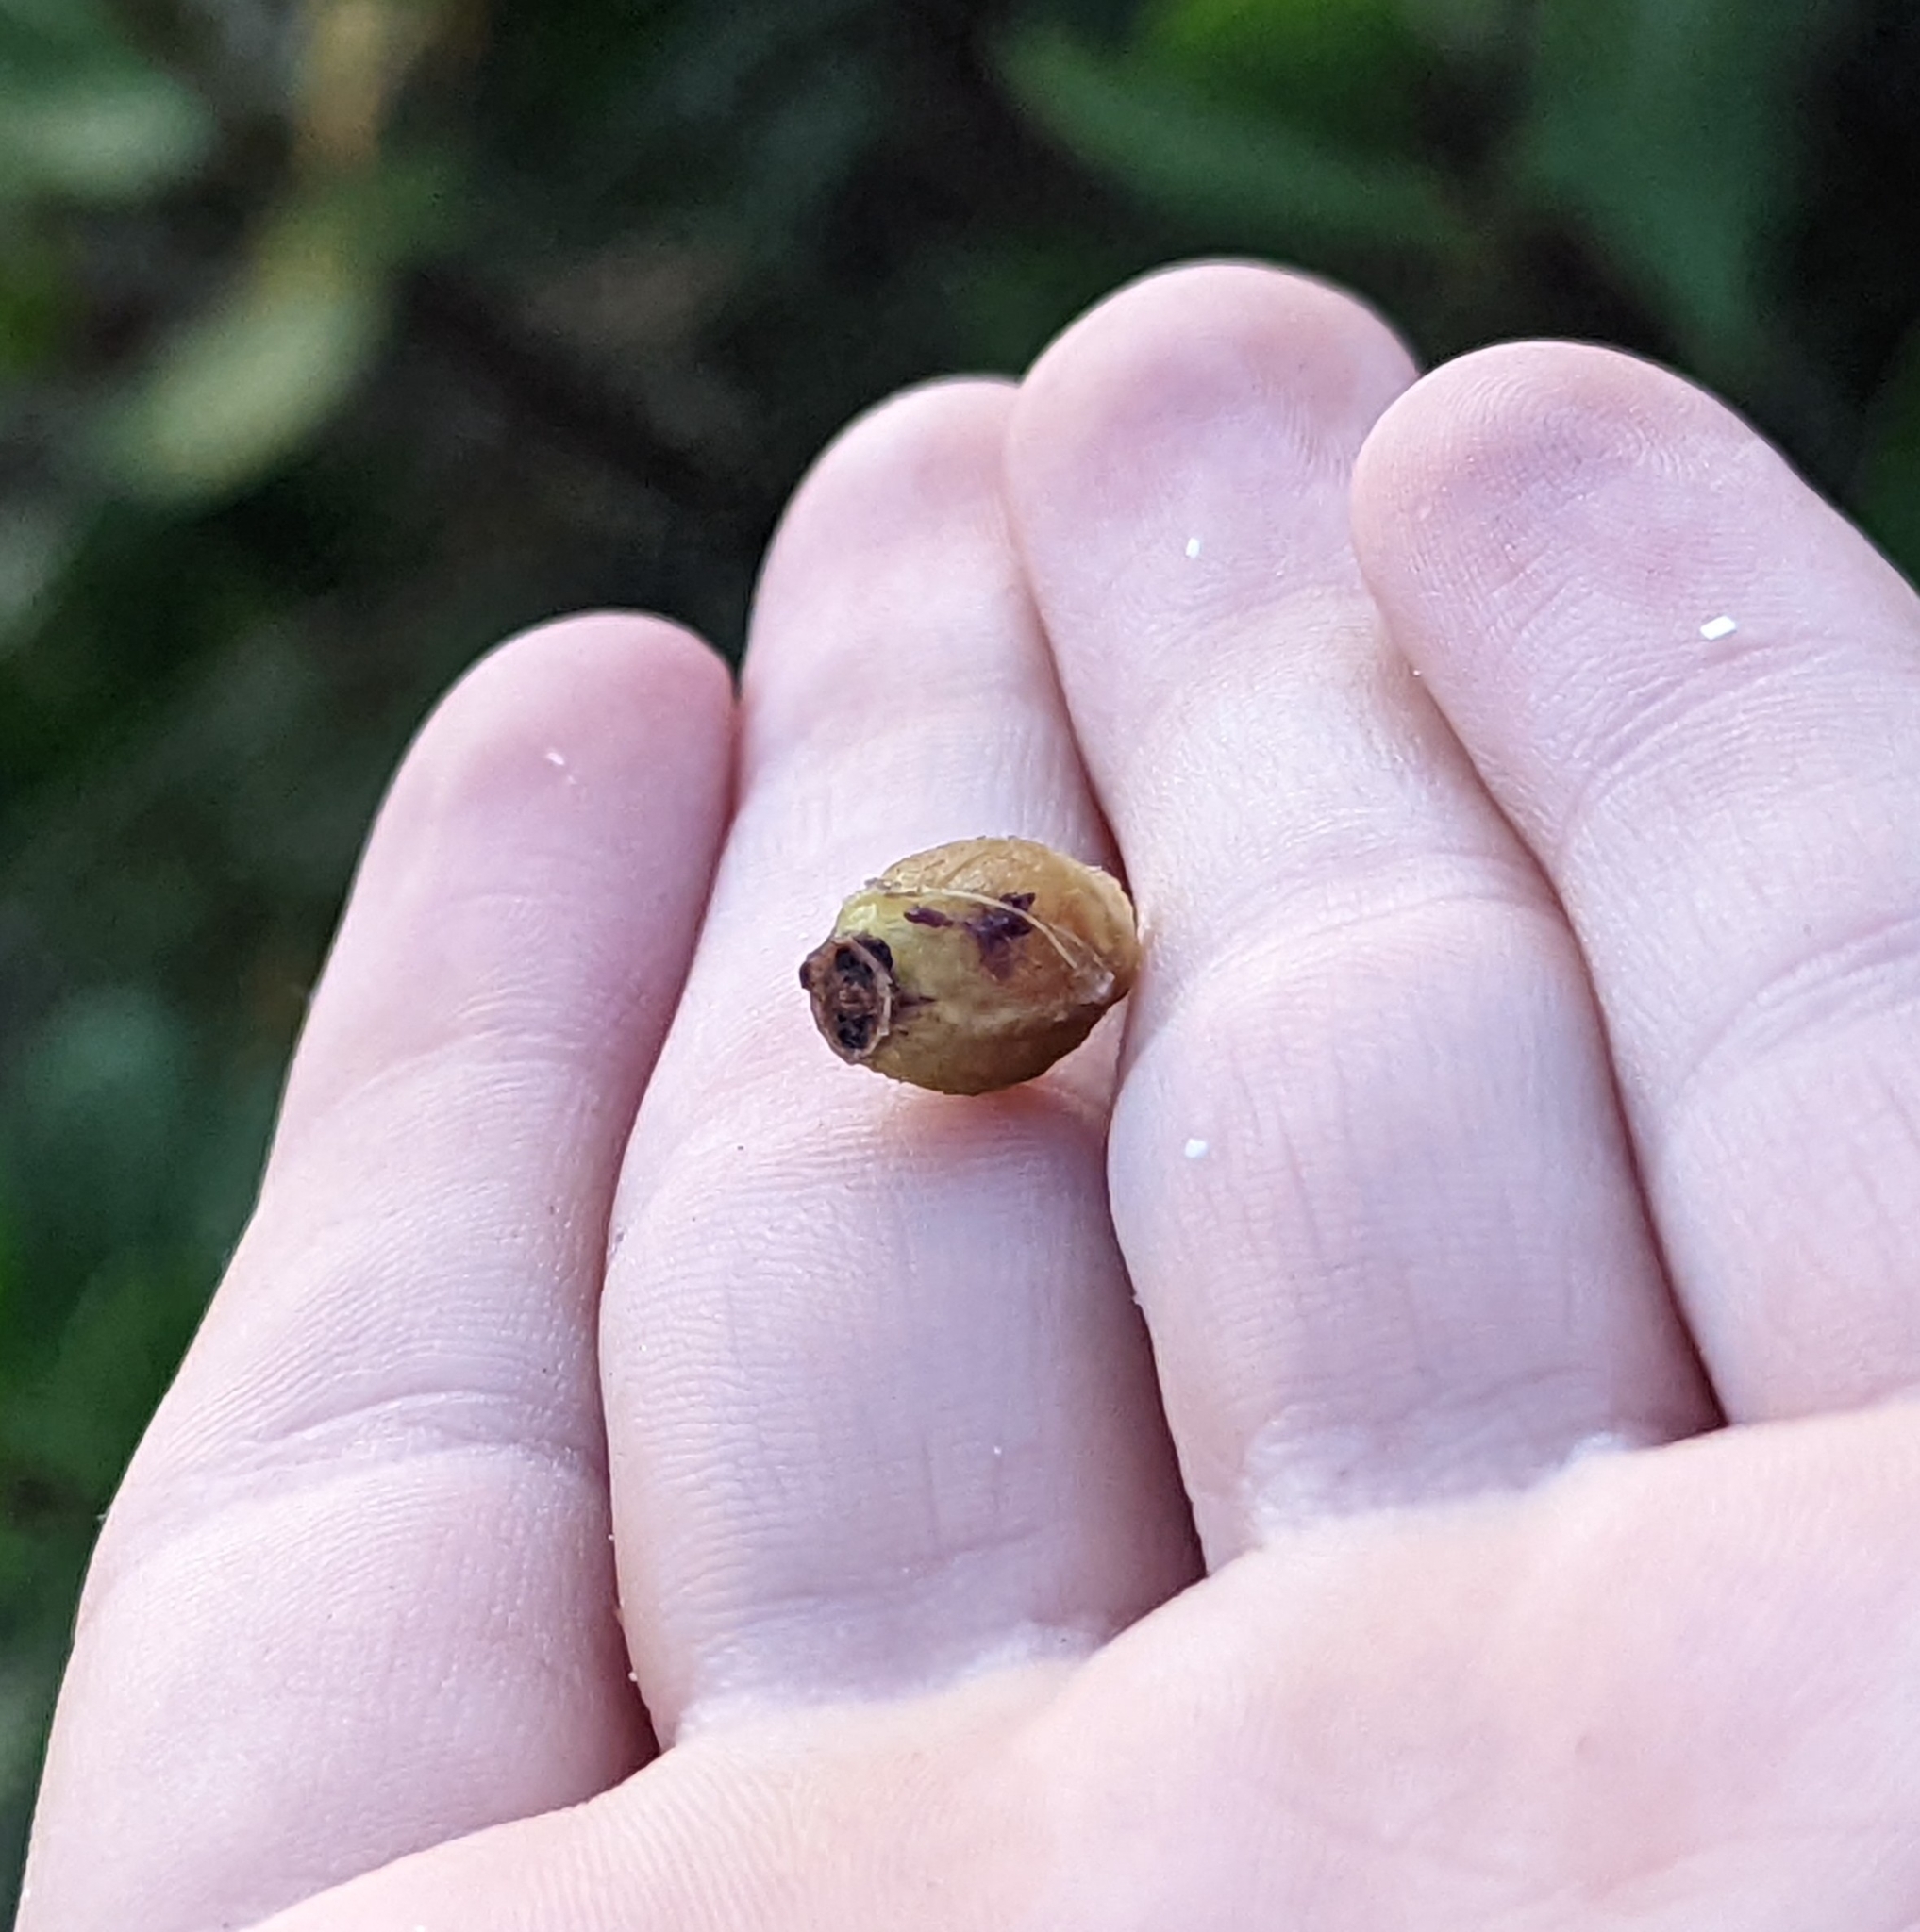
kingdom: Plantae
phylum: Tracheophyta
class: Magnoliopsida
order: Asterales
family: Goodeniaceae
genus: Scaevola
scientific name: Scaevola plumieri
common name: Gull feed
